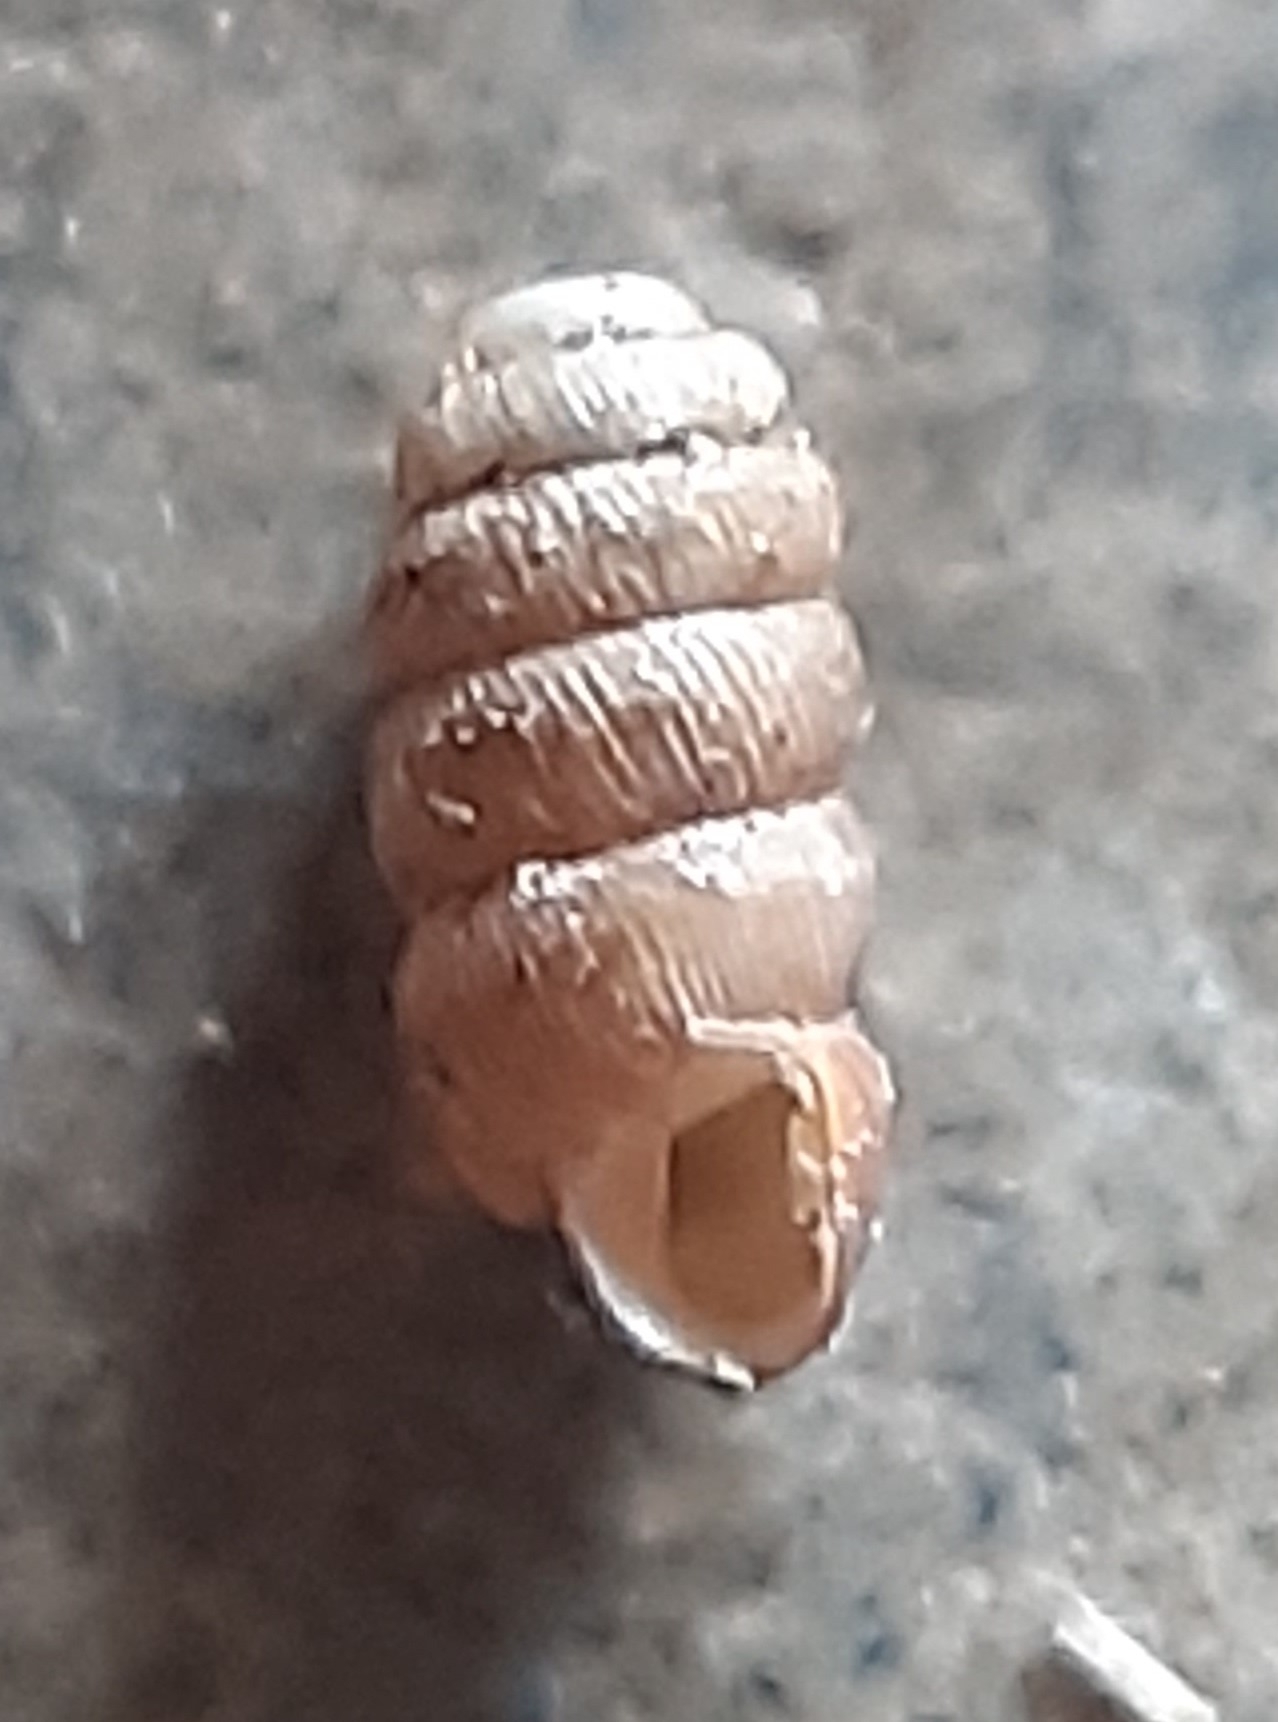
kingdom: Animalia
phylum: Mollusca
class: Gastropoda
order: Stylommatophora
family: Truncatellinidae
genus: Truncatellina
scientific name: Truncatellina cylindrica
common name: Cylindrical whorl snail
